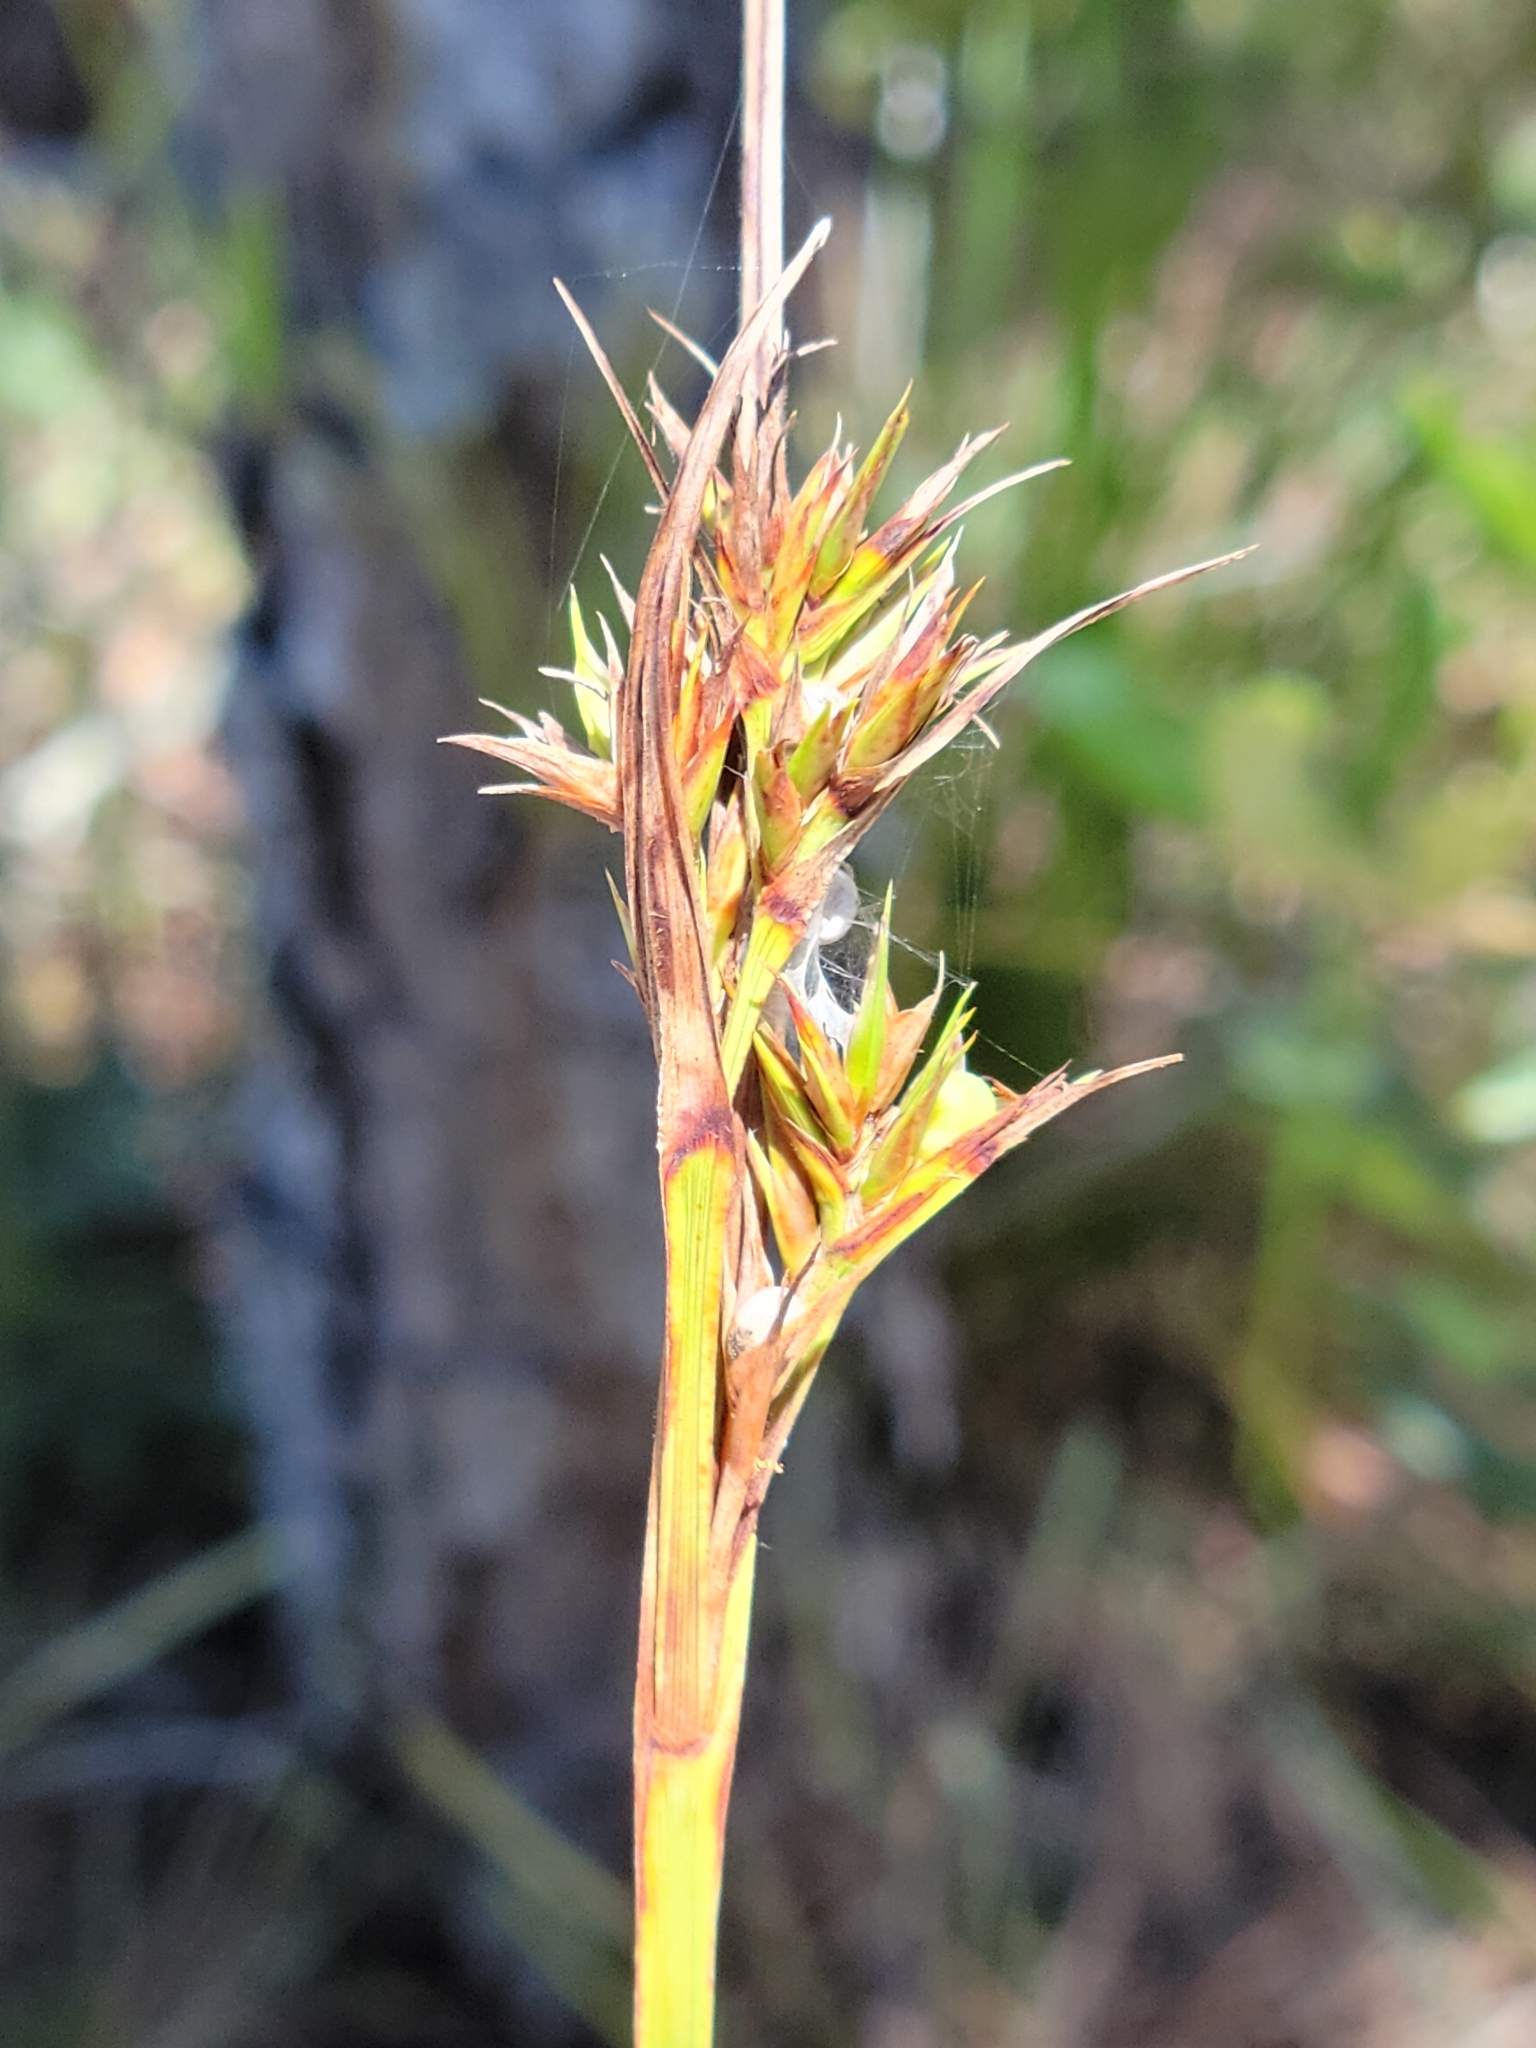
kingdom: Plantae
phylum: Tracheophyta
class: Liliopsida
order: Poales
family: Cyperaceae
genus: Scleria
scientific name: Scleria triglomerata
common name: Whip nutrush
